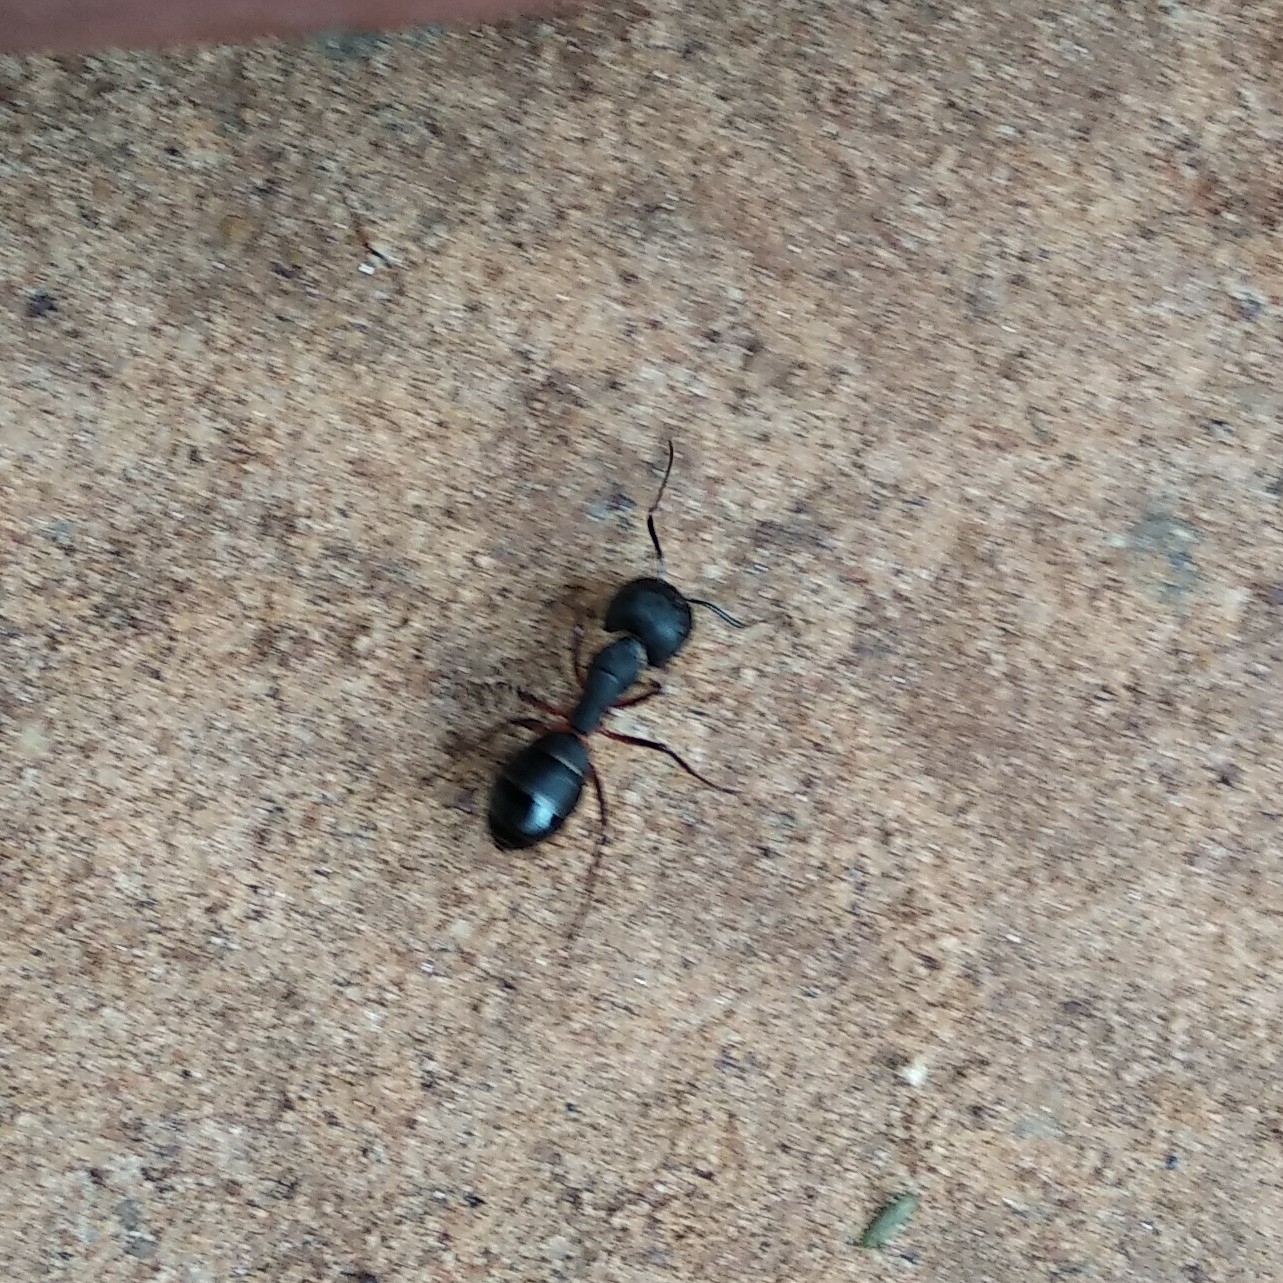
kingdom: Animalia
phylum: Arthropoda
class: Insecta
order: Hymenoptera
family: Formicidae
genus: Camponotus
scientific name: Camponotus compressus
